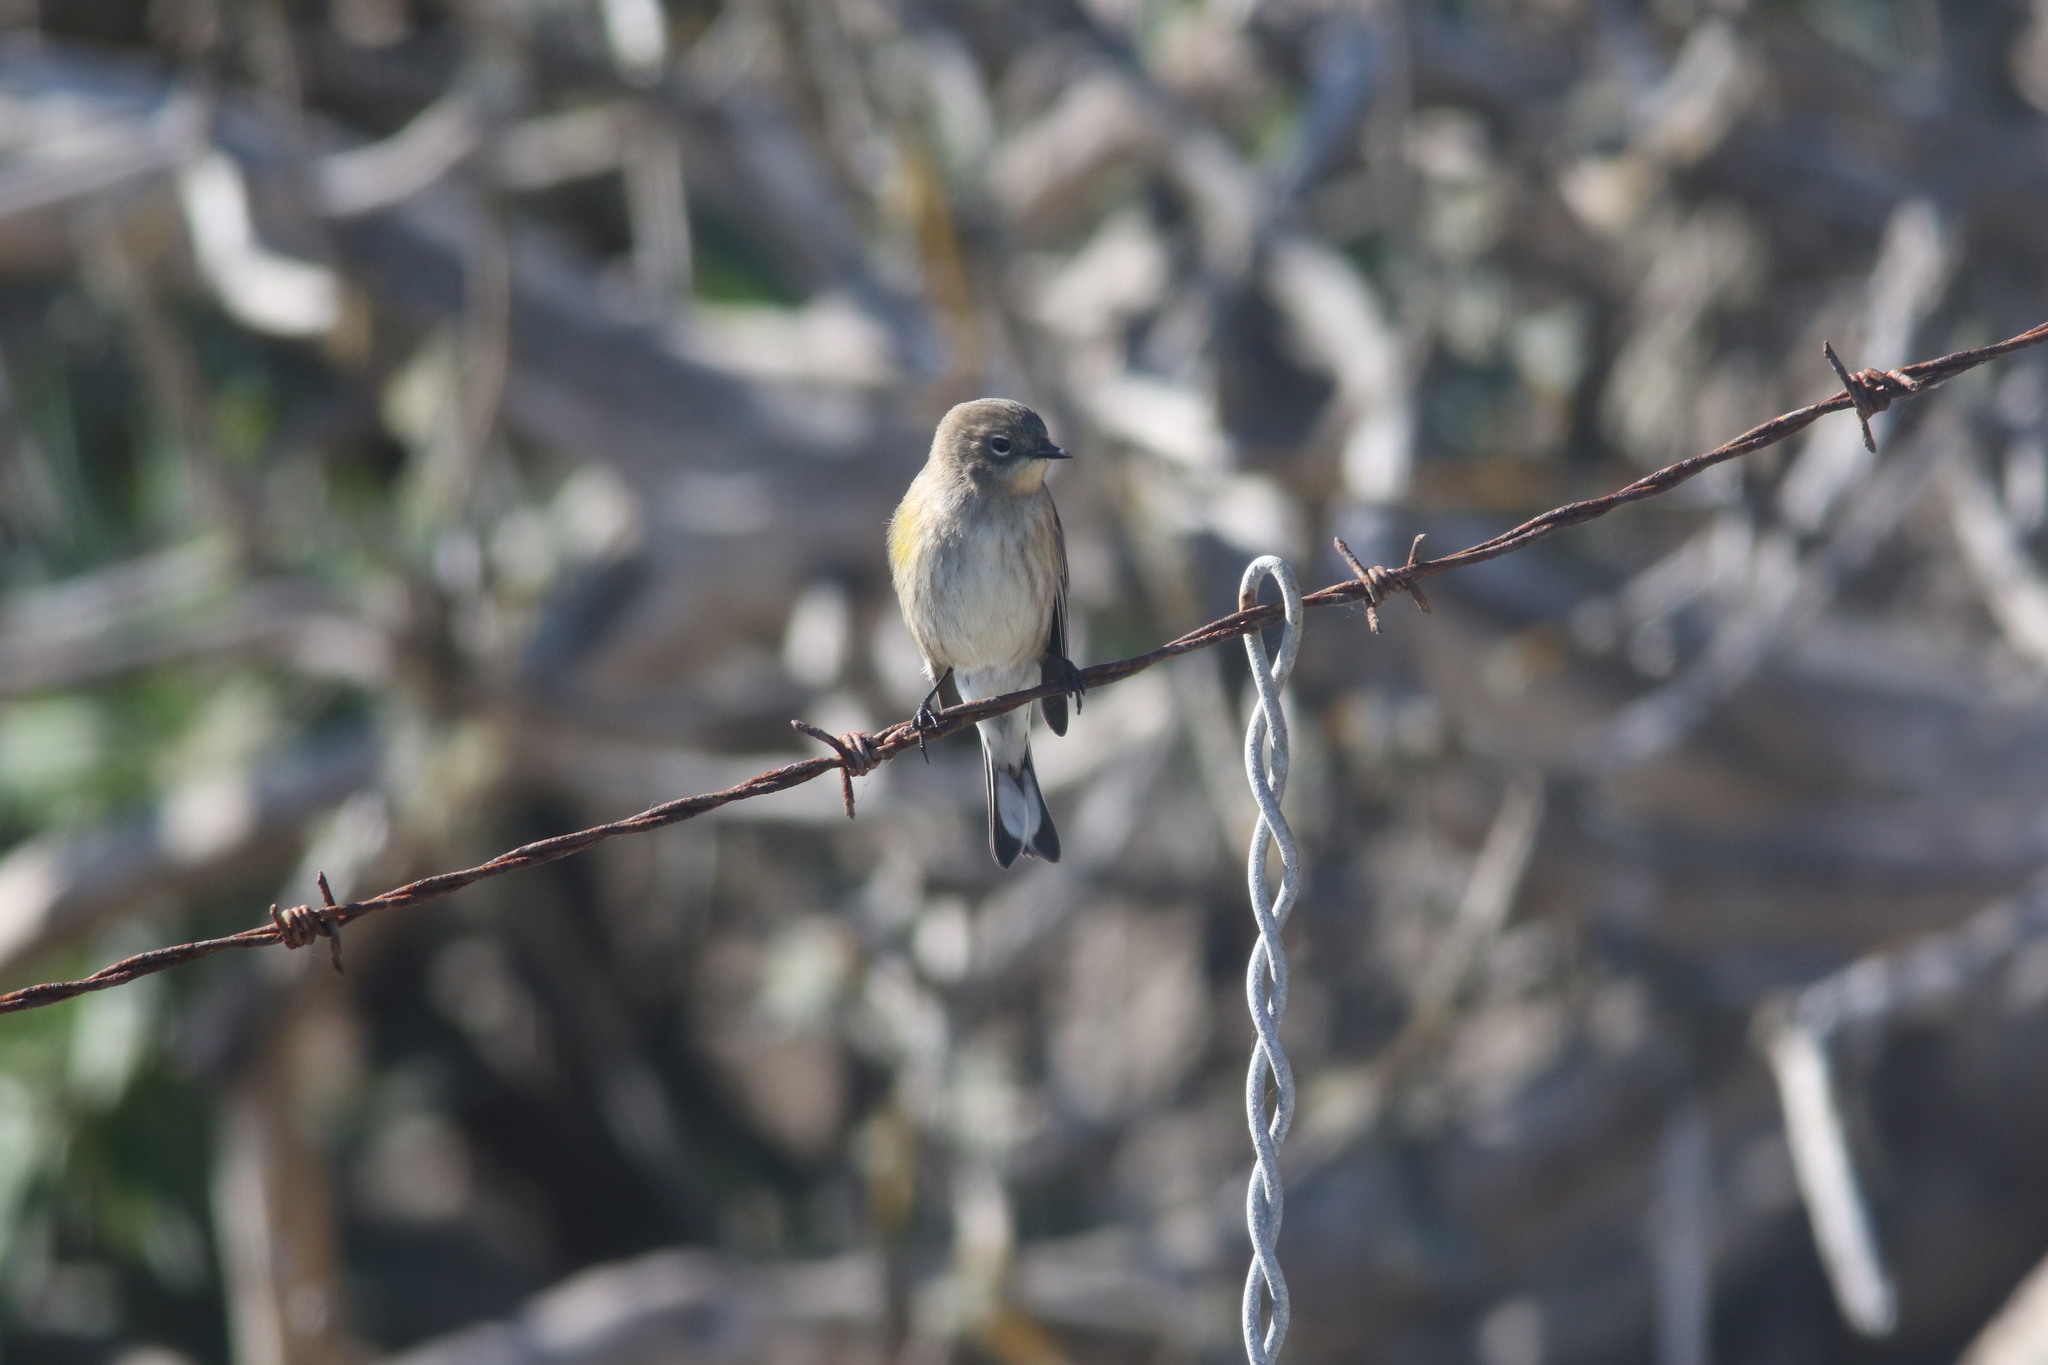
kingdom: Animalia
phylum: Chordata
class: Aves
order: Passeriformes
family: Parulidae
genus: Setophaga
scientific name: Setophaga coronata
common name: Myrtle warbler
